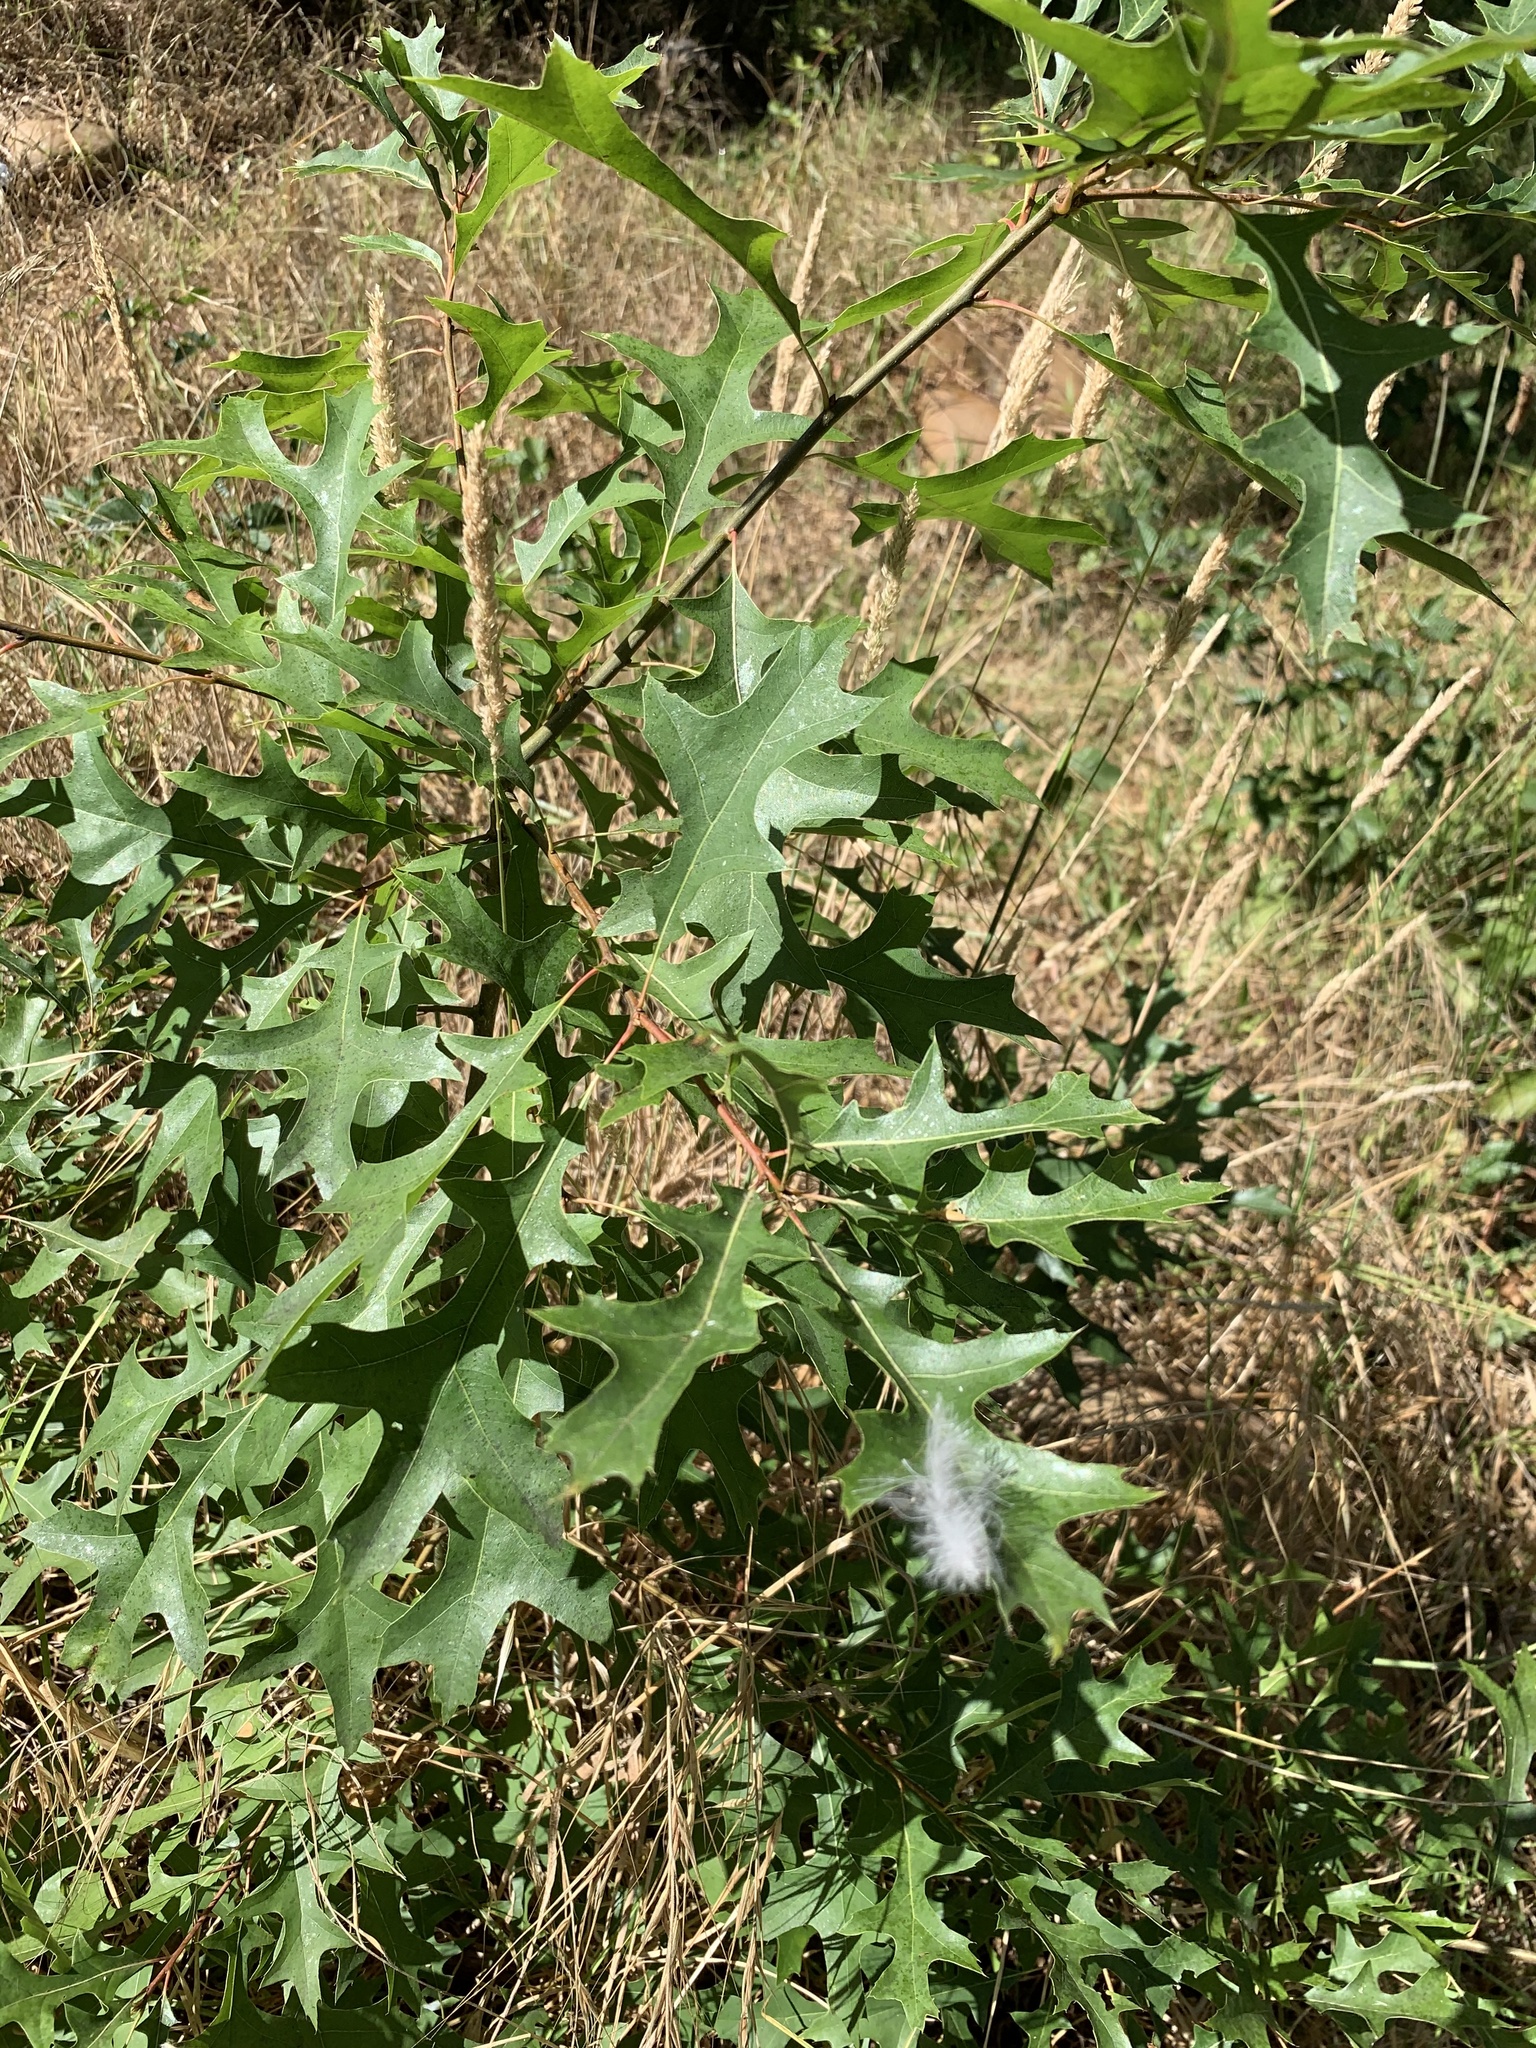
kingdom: Plantae
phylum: Tracheophyta
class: Magnoliopsida
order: Fagales
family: Fagaceae
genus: Quercus
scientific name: Quercus palustris
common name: Pin oak
